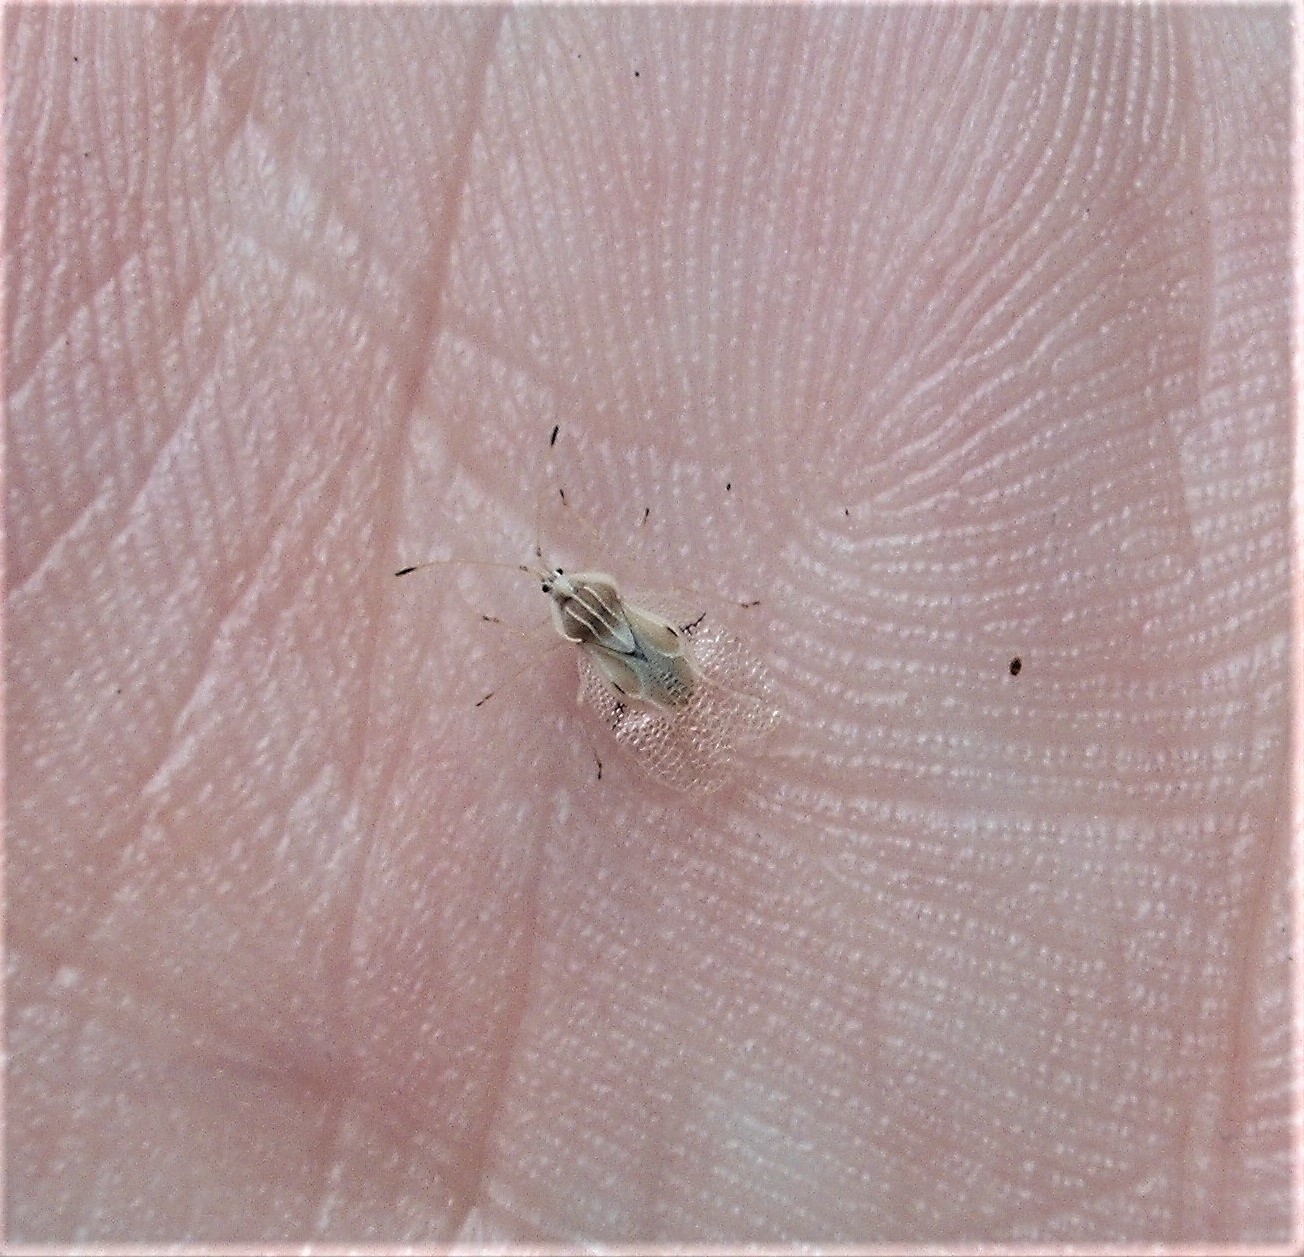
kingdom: Animalia
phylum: Arthropoda
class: Insecta
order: Hemiptera
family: Tingidae
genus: Gargaphia
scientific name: Gargaphia decoris
